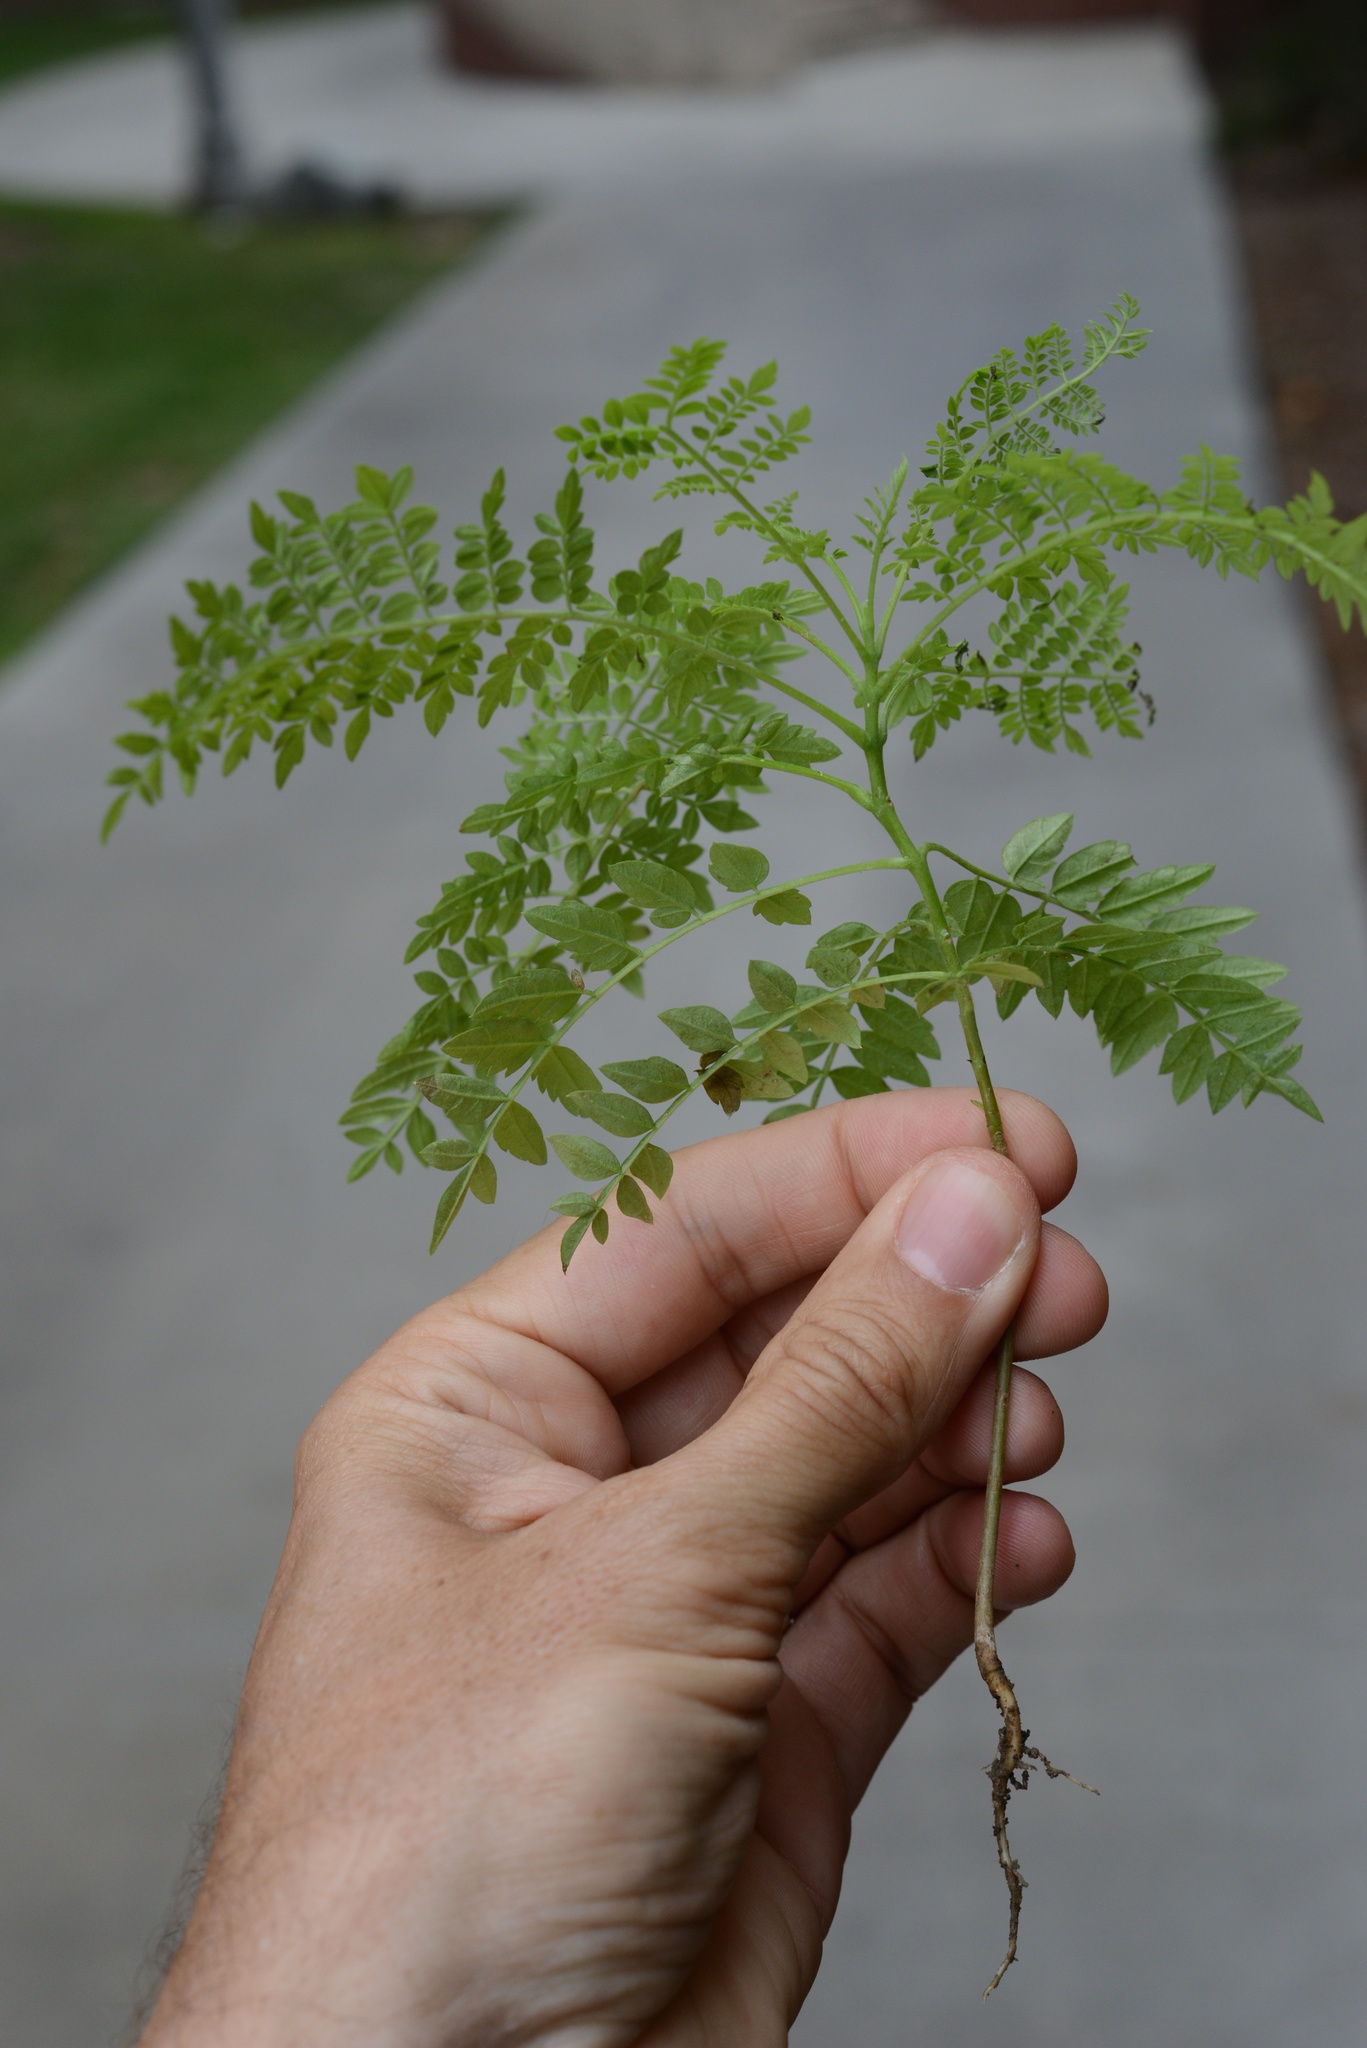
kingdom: Plantae
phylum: Tracheophyta
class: Magnoliopsida
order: Lamiales
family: Bignoniaceae
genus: Jacaranda
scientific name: Jacaranda mimosifolia
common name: Black poui
